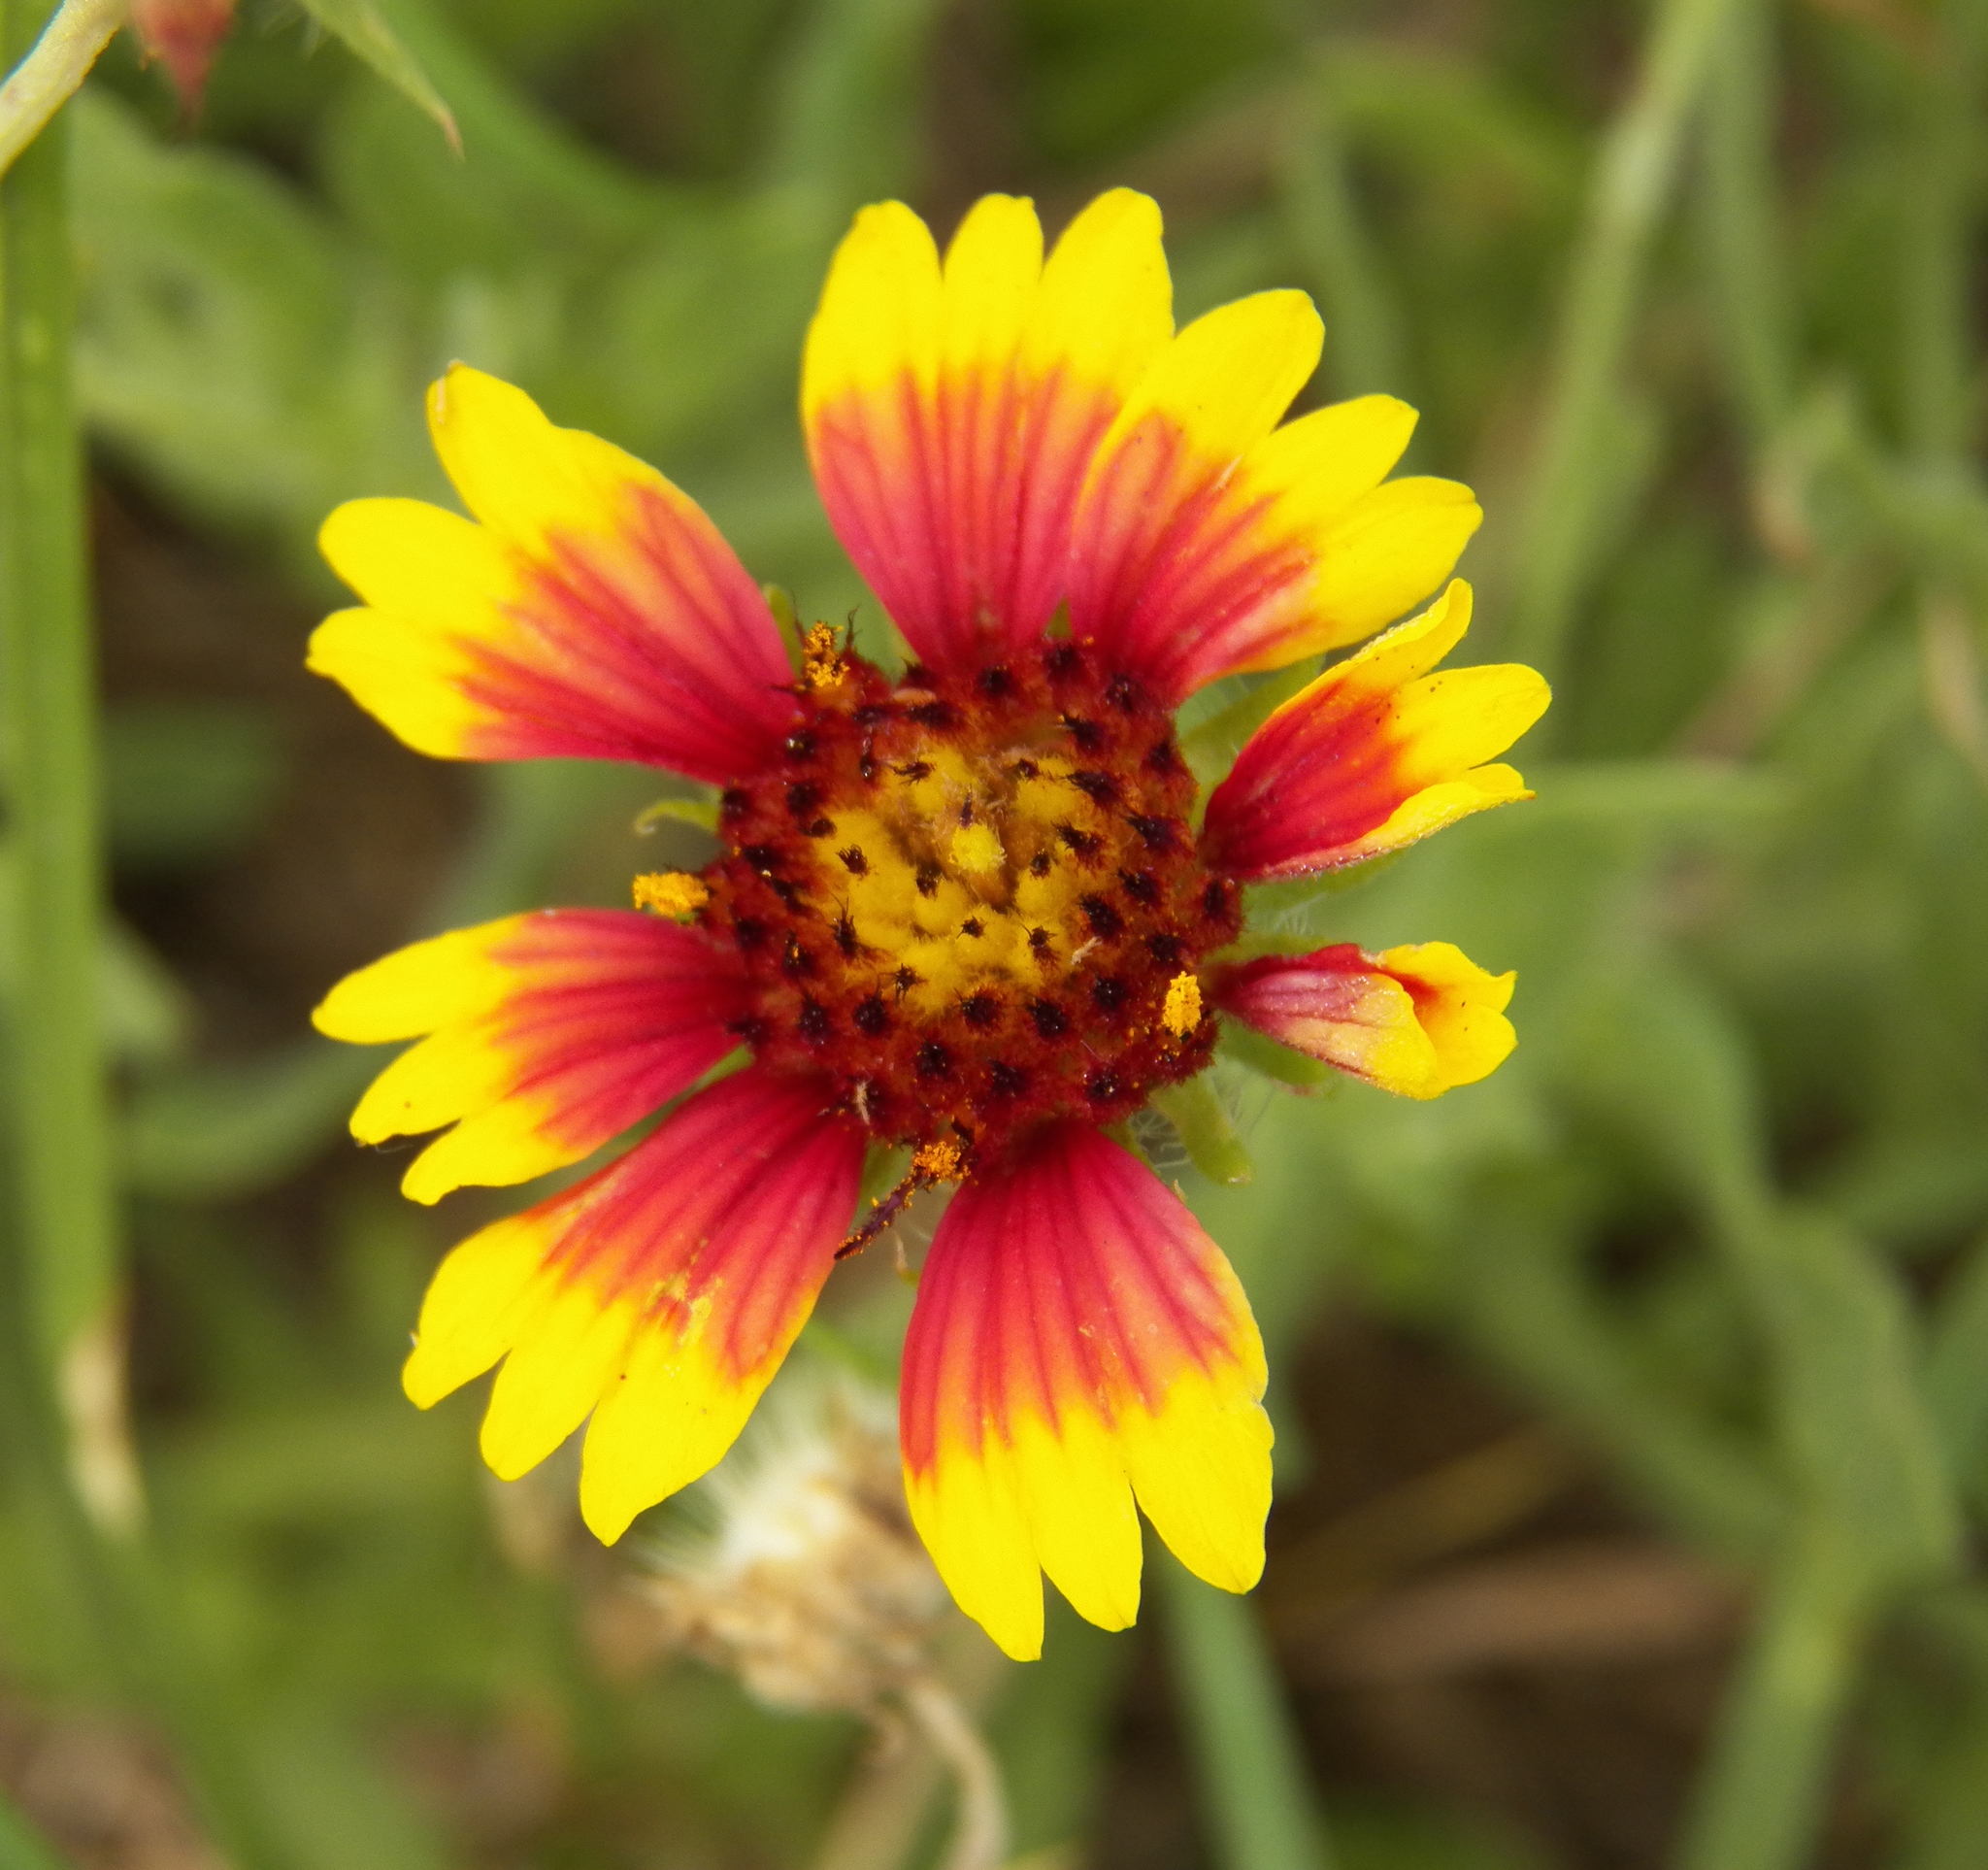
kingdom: Plantae
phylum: Tracheophyta
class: Magnoliopsida
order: Asterales
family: Asteraceae
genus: Gaillardia
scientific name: Gaillardia pulchella
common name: Firewheel
